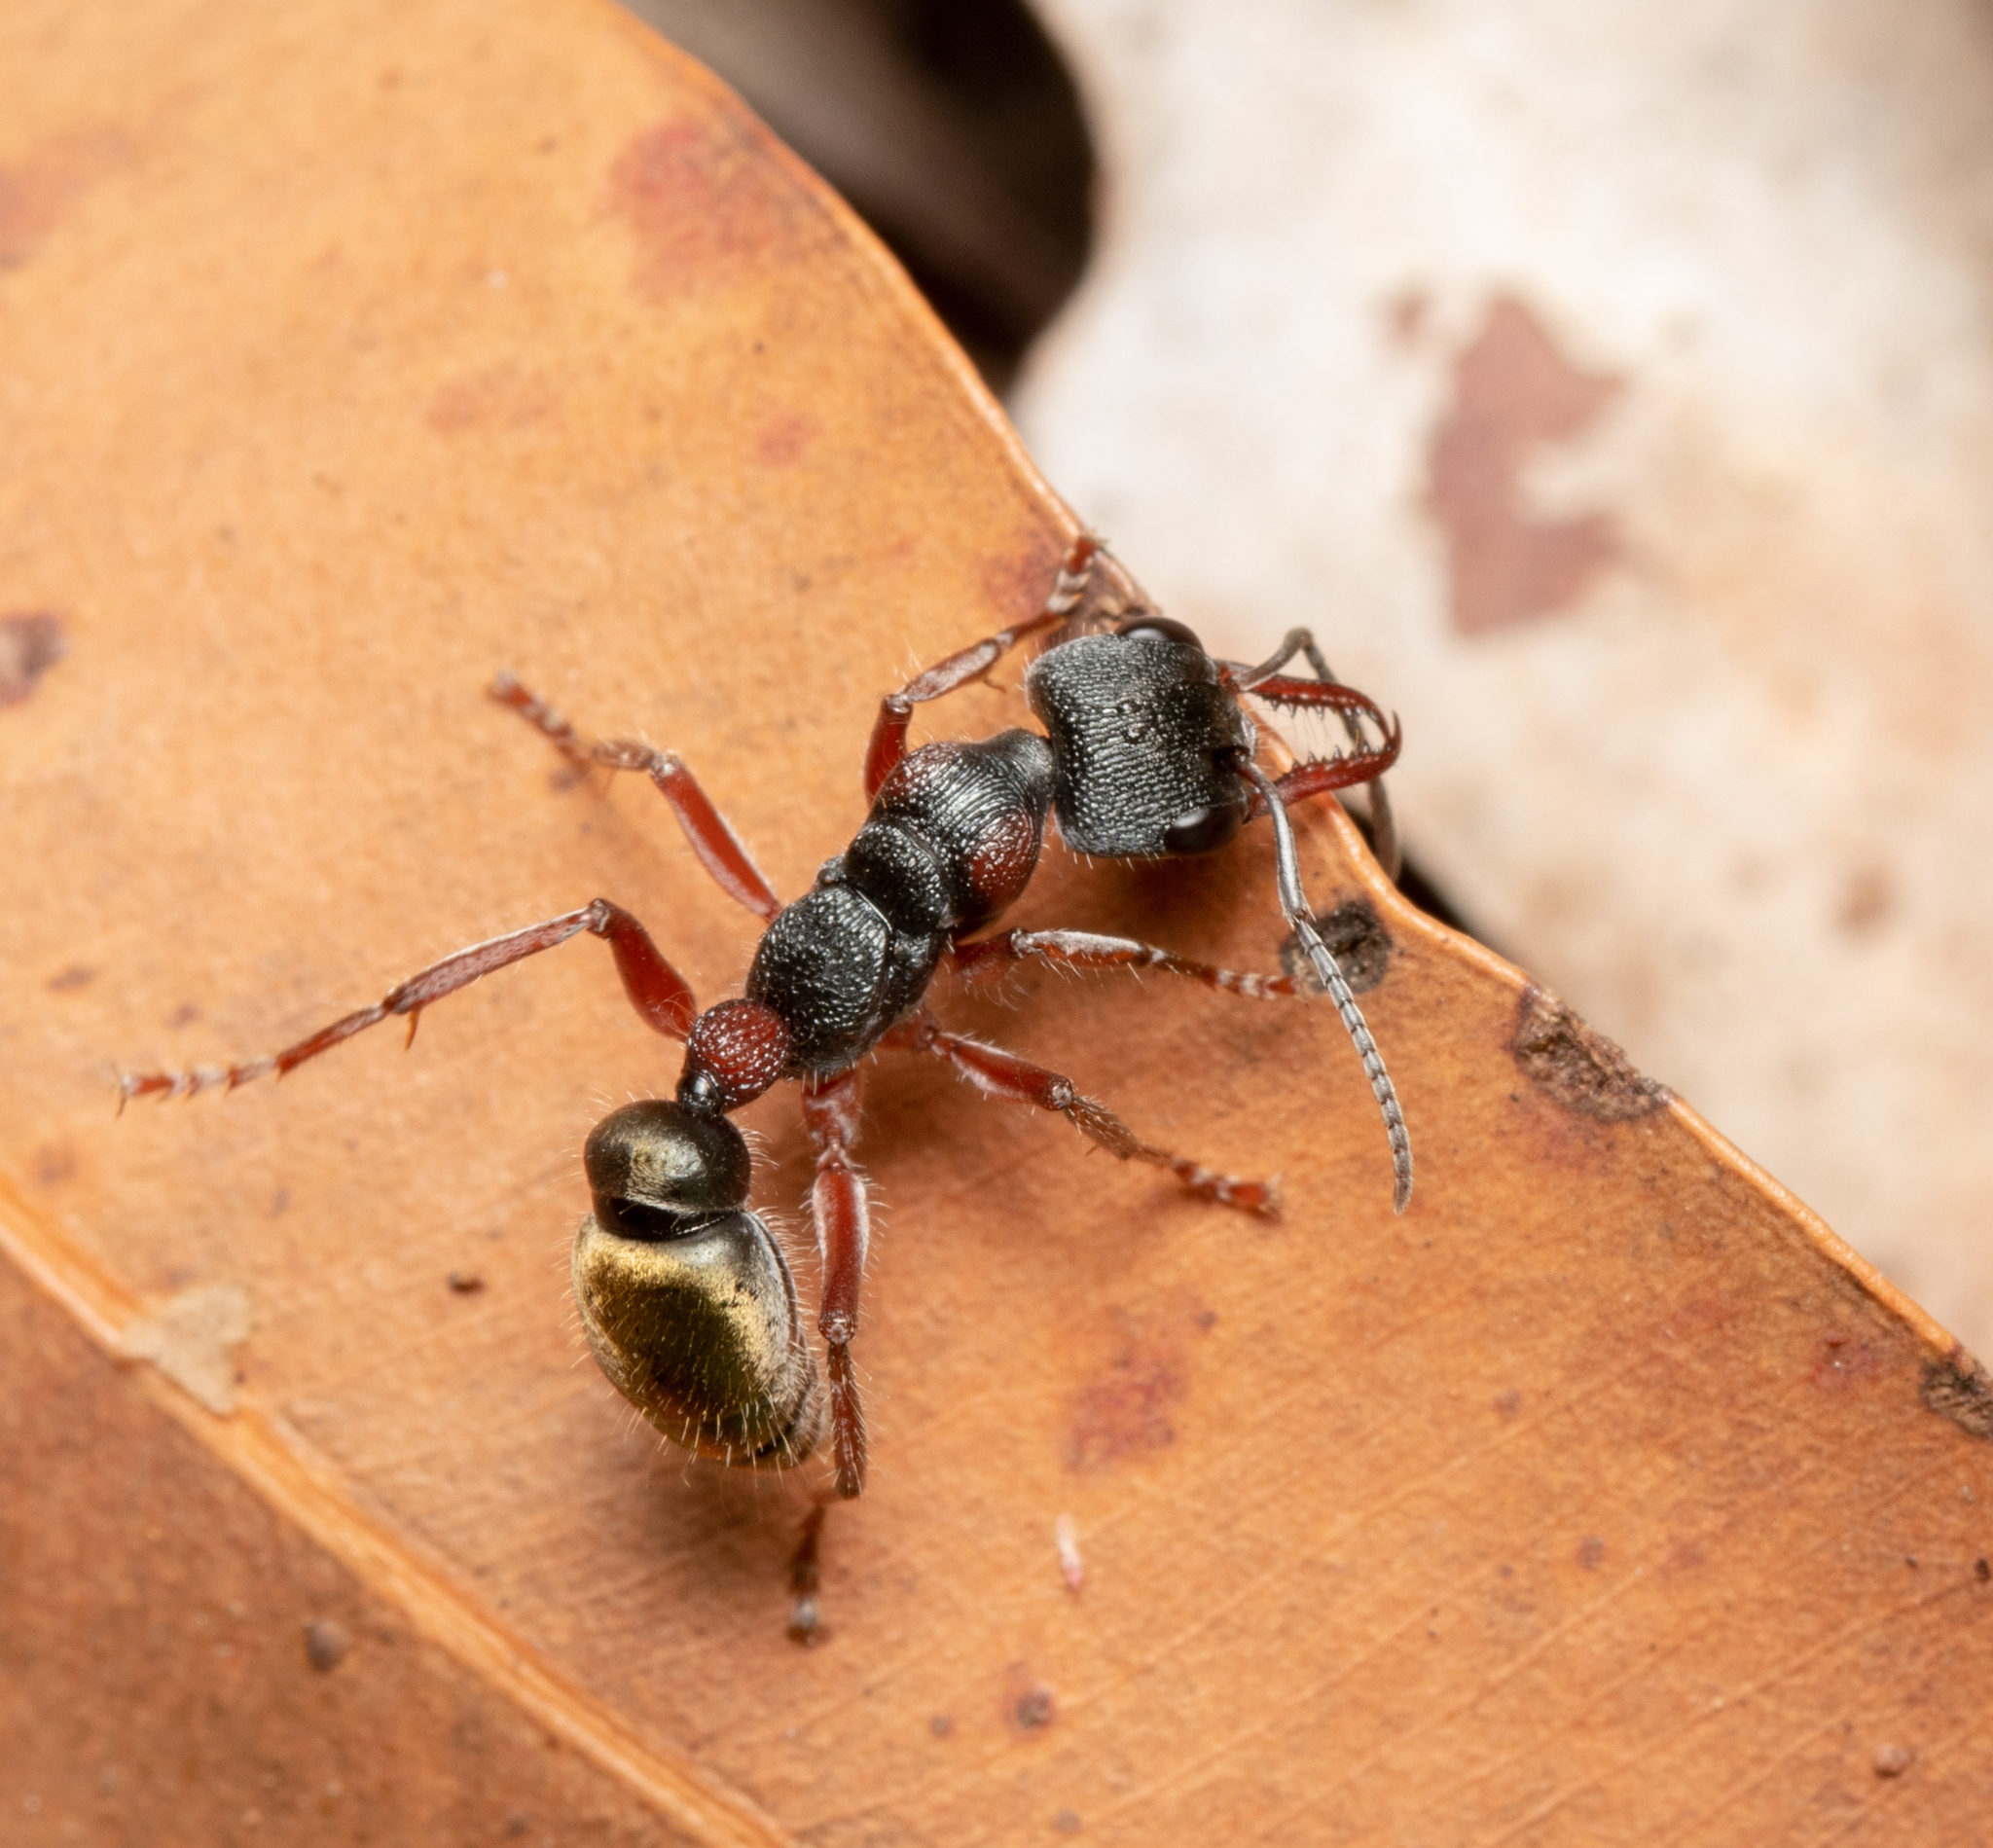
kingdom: Animalia
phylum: Arthropoda
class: Insecta
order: Hymenoptera
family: Formicidae
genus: Myrmecia
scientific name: Myrmecia chrysogaster
